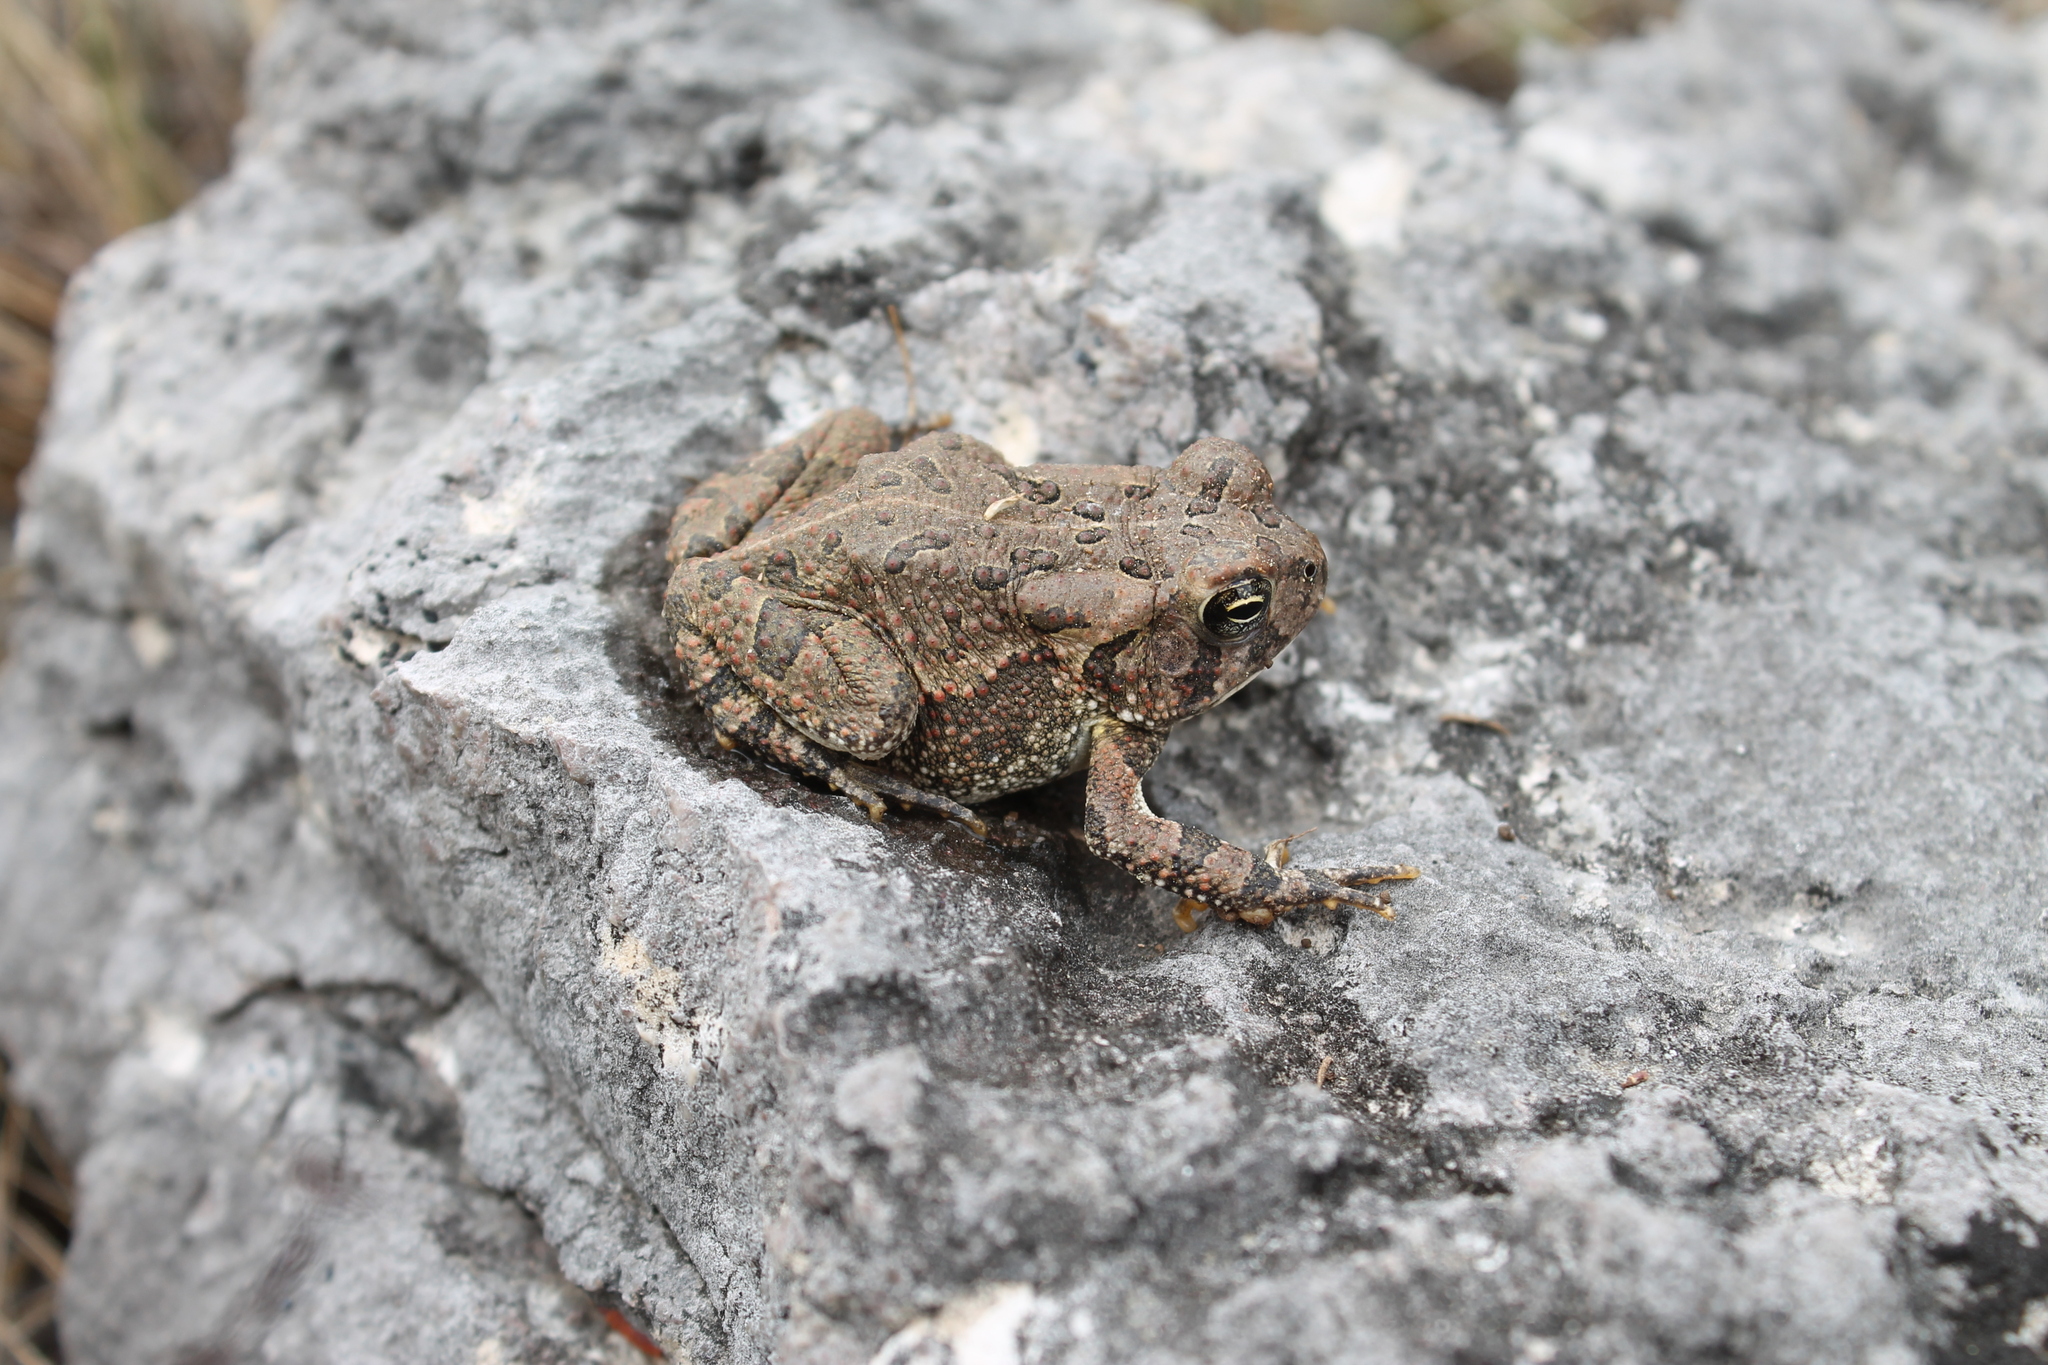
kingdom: Animalia
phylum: Chordata
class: Amphibia
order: Anura
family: Bufonidae
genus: Anaxyrus
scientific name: Anaxyrus fowleri
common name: Fowler's toad
